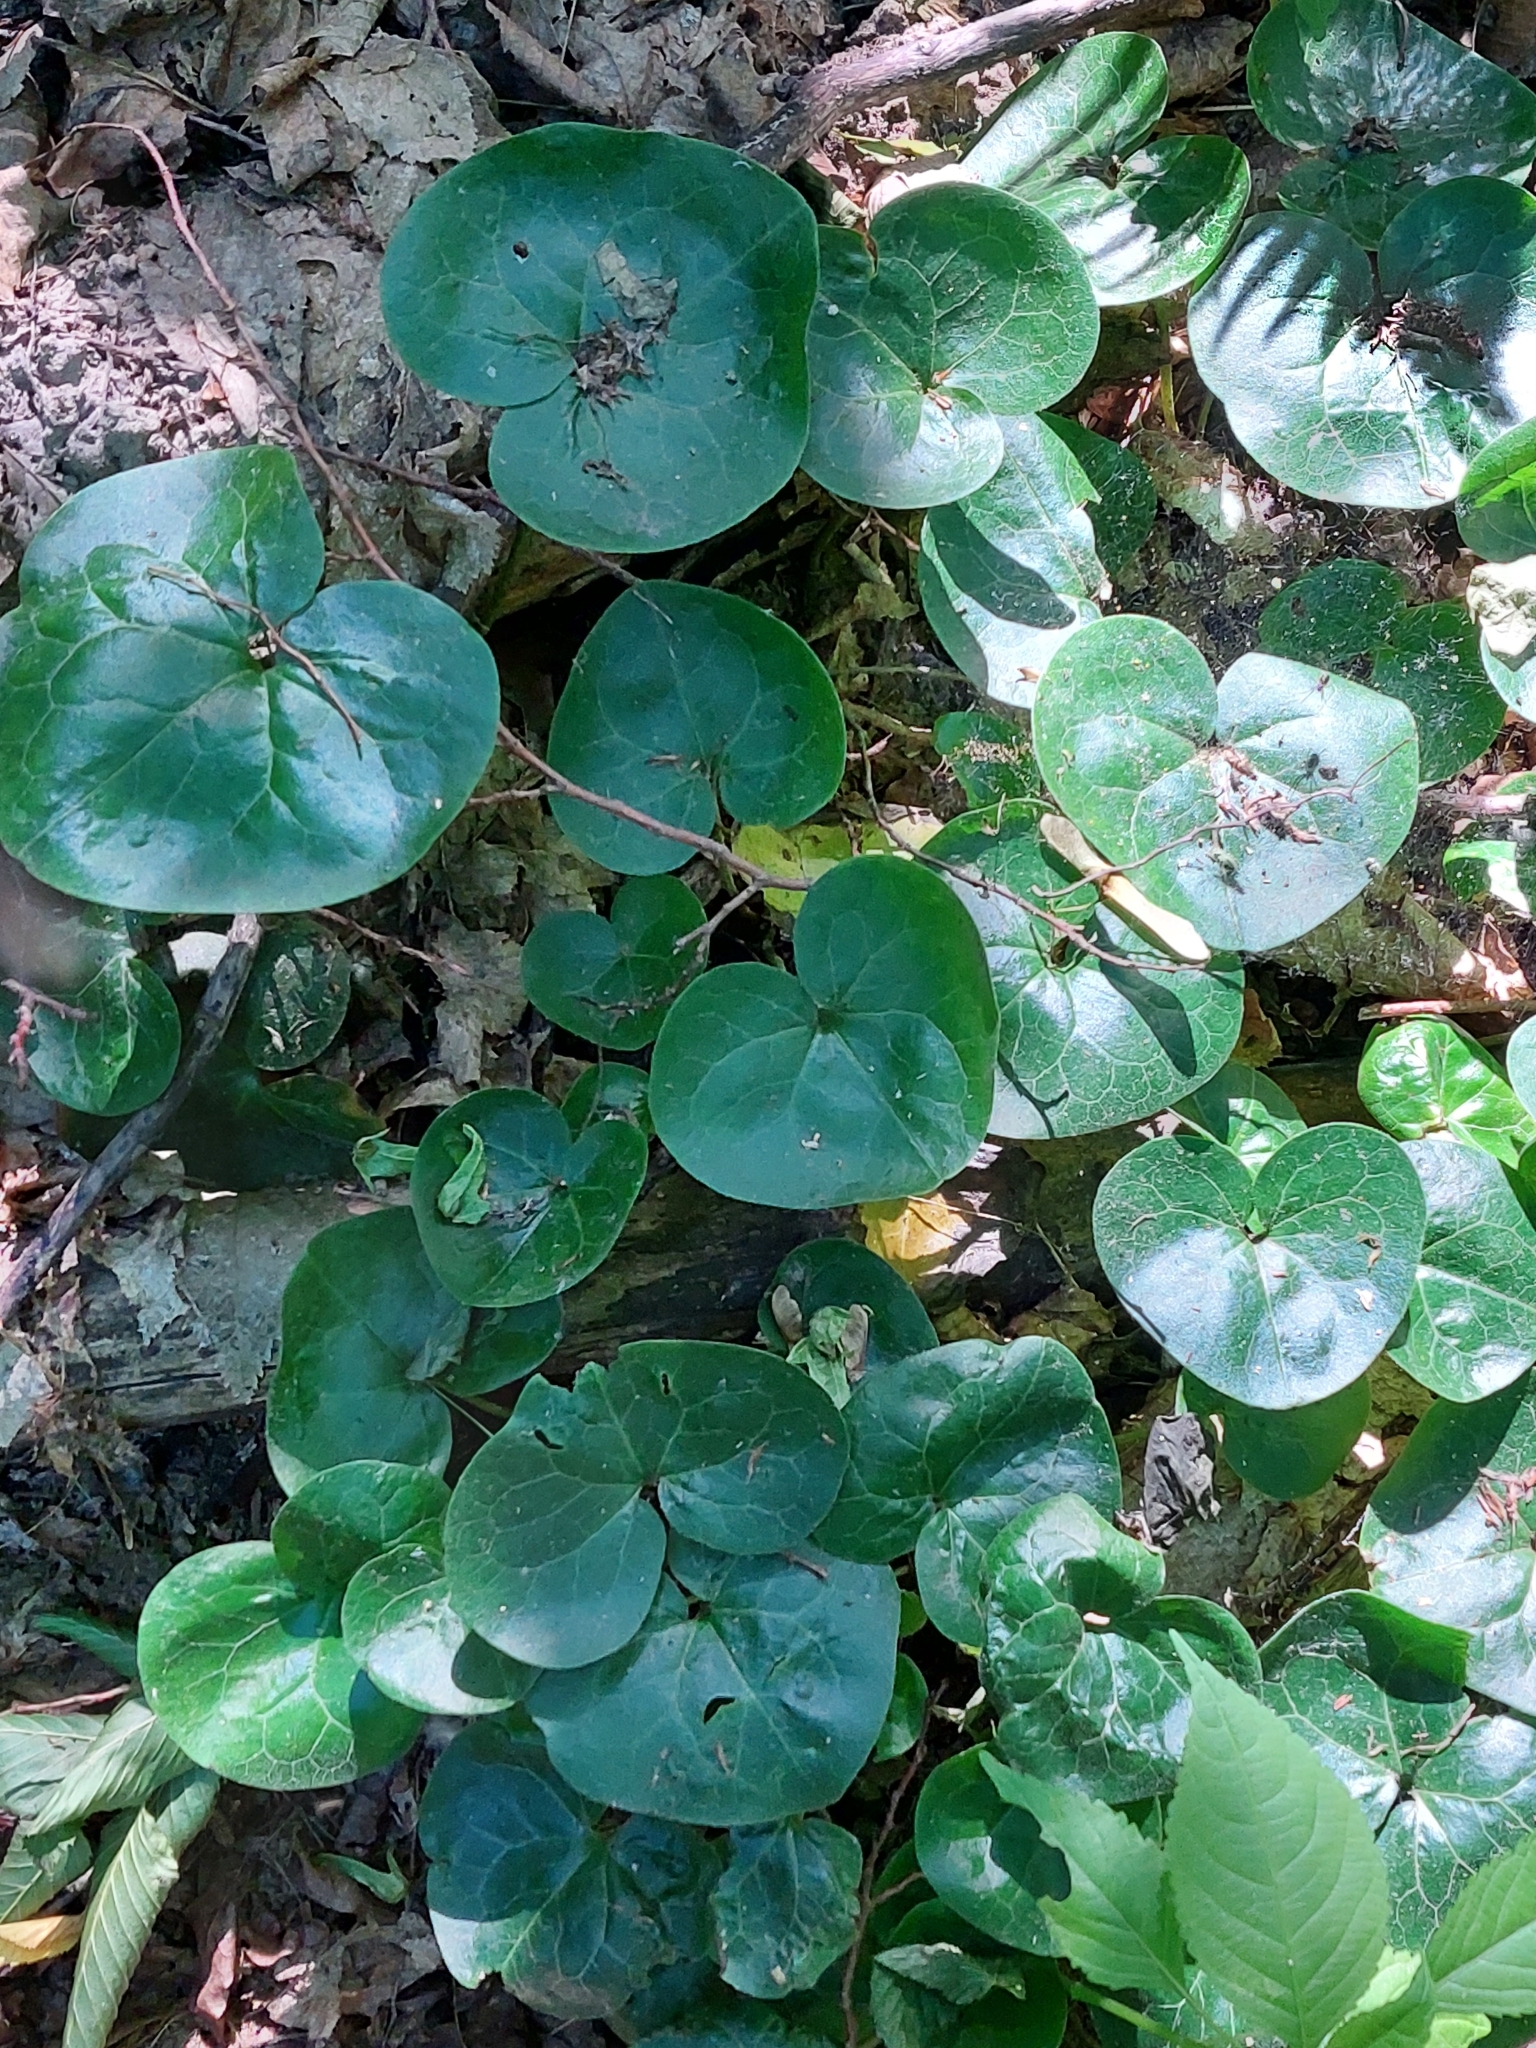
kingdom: Plantae
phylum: Tracheophyta
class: Magnoliopsida
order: Piperales
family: Aristolochiaceae
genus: Asarum
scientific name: Asarum europaeum
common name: Asarabacca
